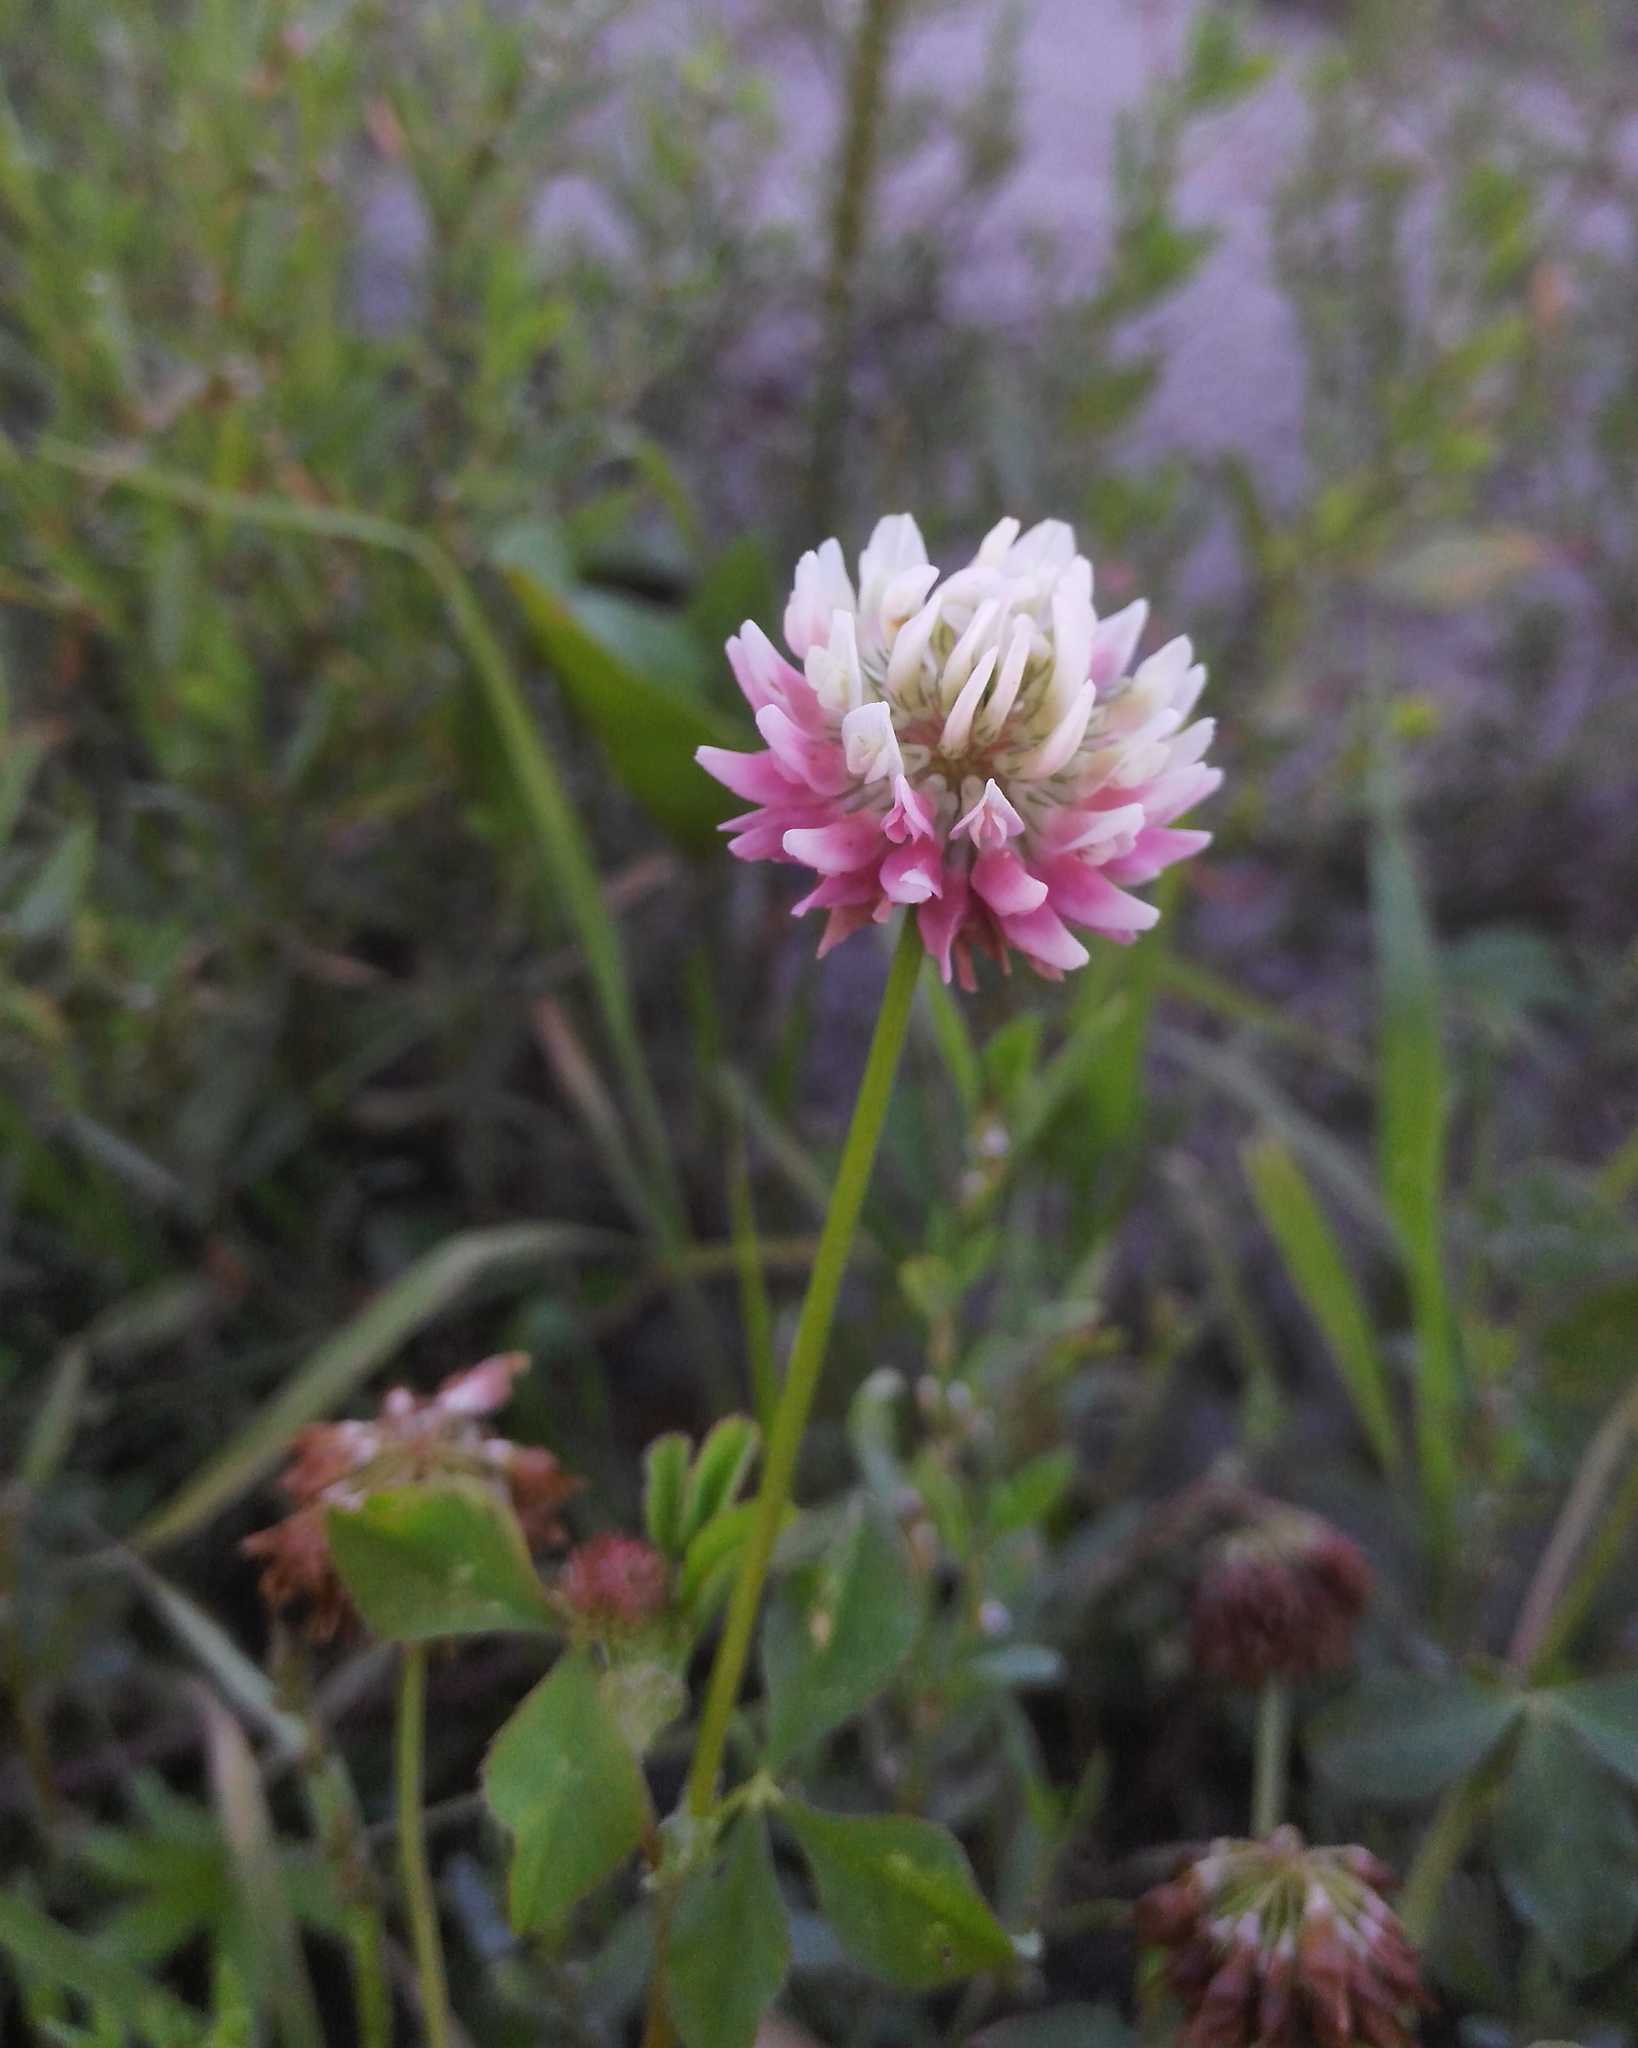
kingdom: Plantae
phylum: Tracheophyta
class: Magnoliopsida
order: Fabales
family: Fabaceae
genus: Trifolium
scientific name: Trifolium hybridum
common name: Alsike clover
